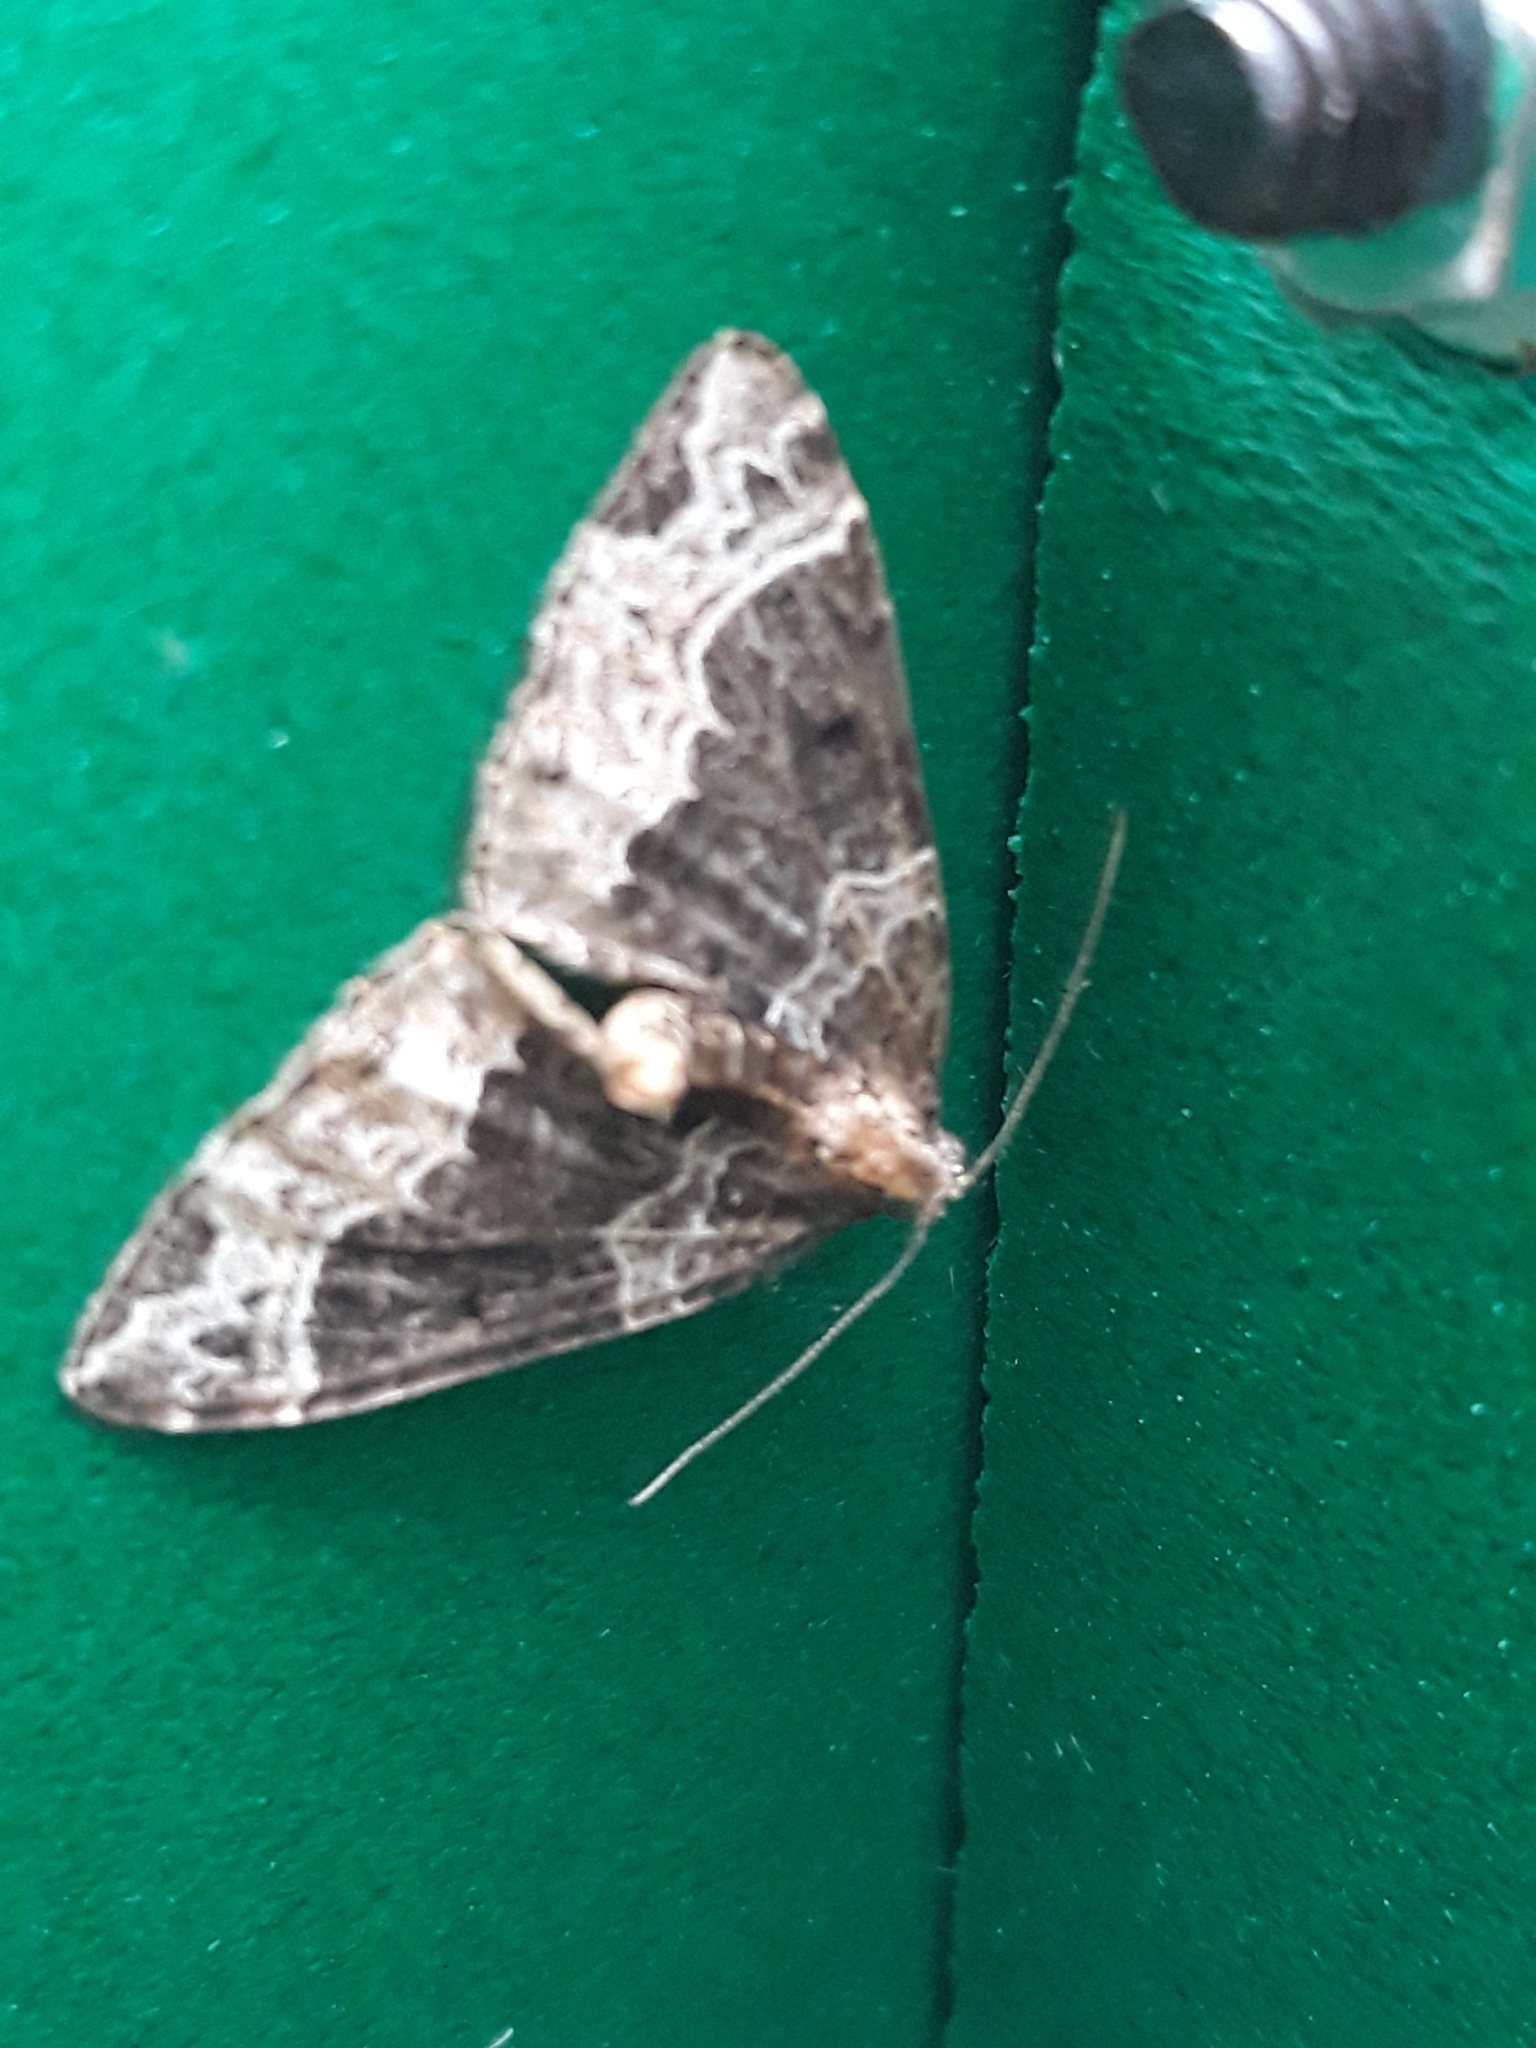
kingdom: Animalia
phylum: Arthropoda
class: Insecta
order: Lepidoptera
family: Geometridae
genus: Ecliptopera
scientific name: Ecliptopera silaceata
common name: Small phoenix
